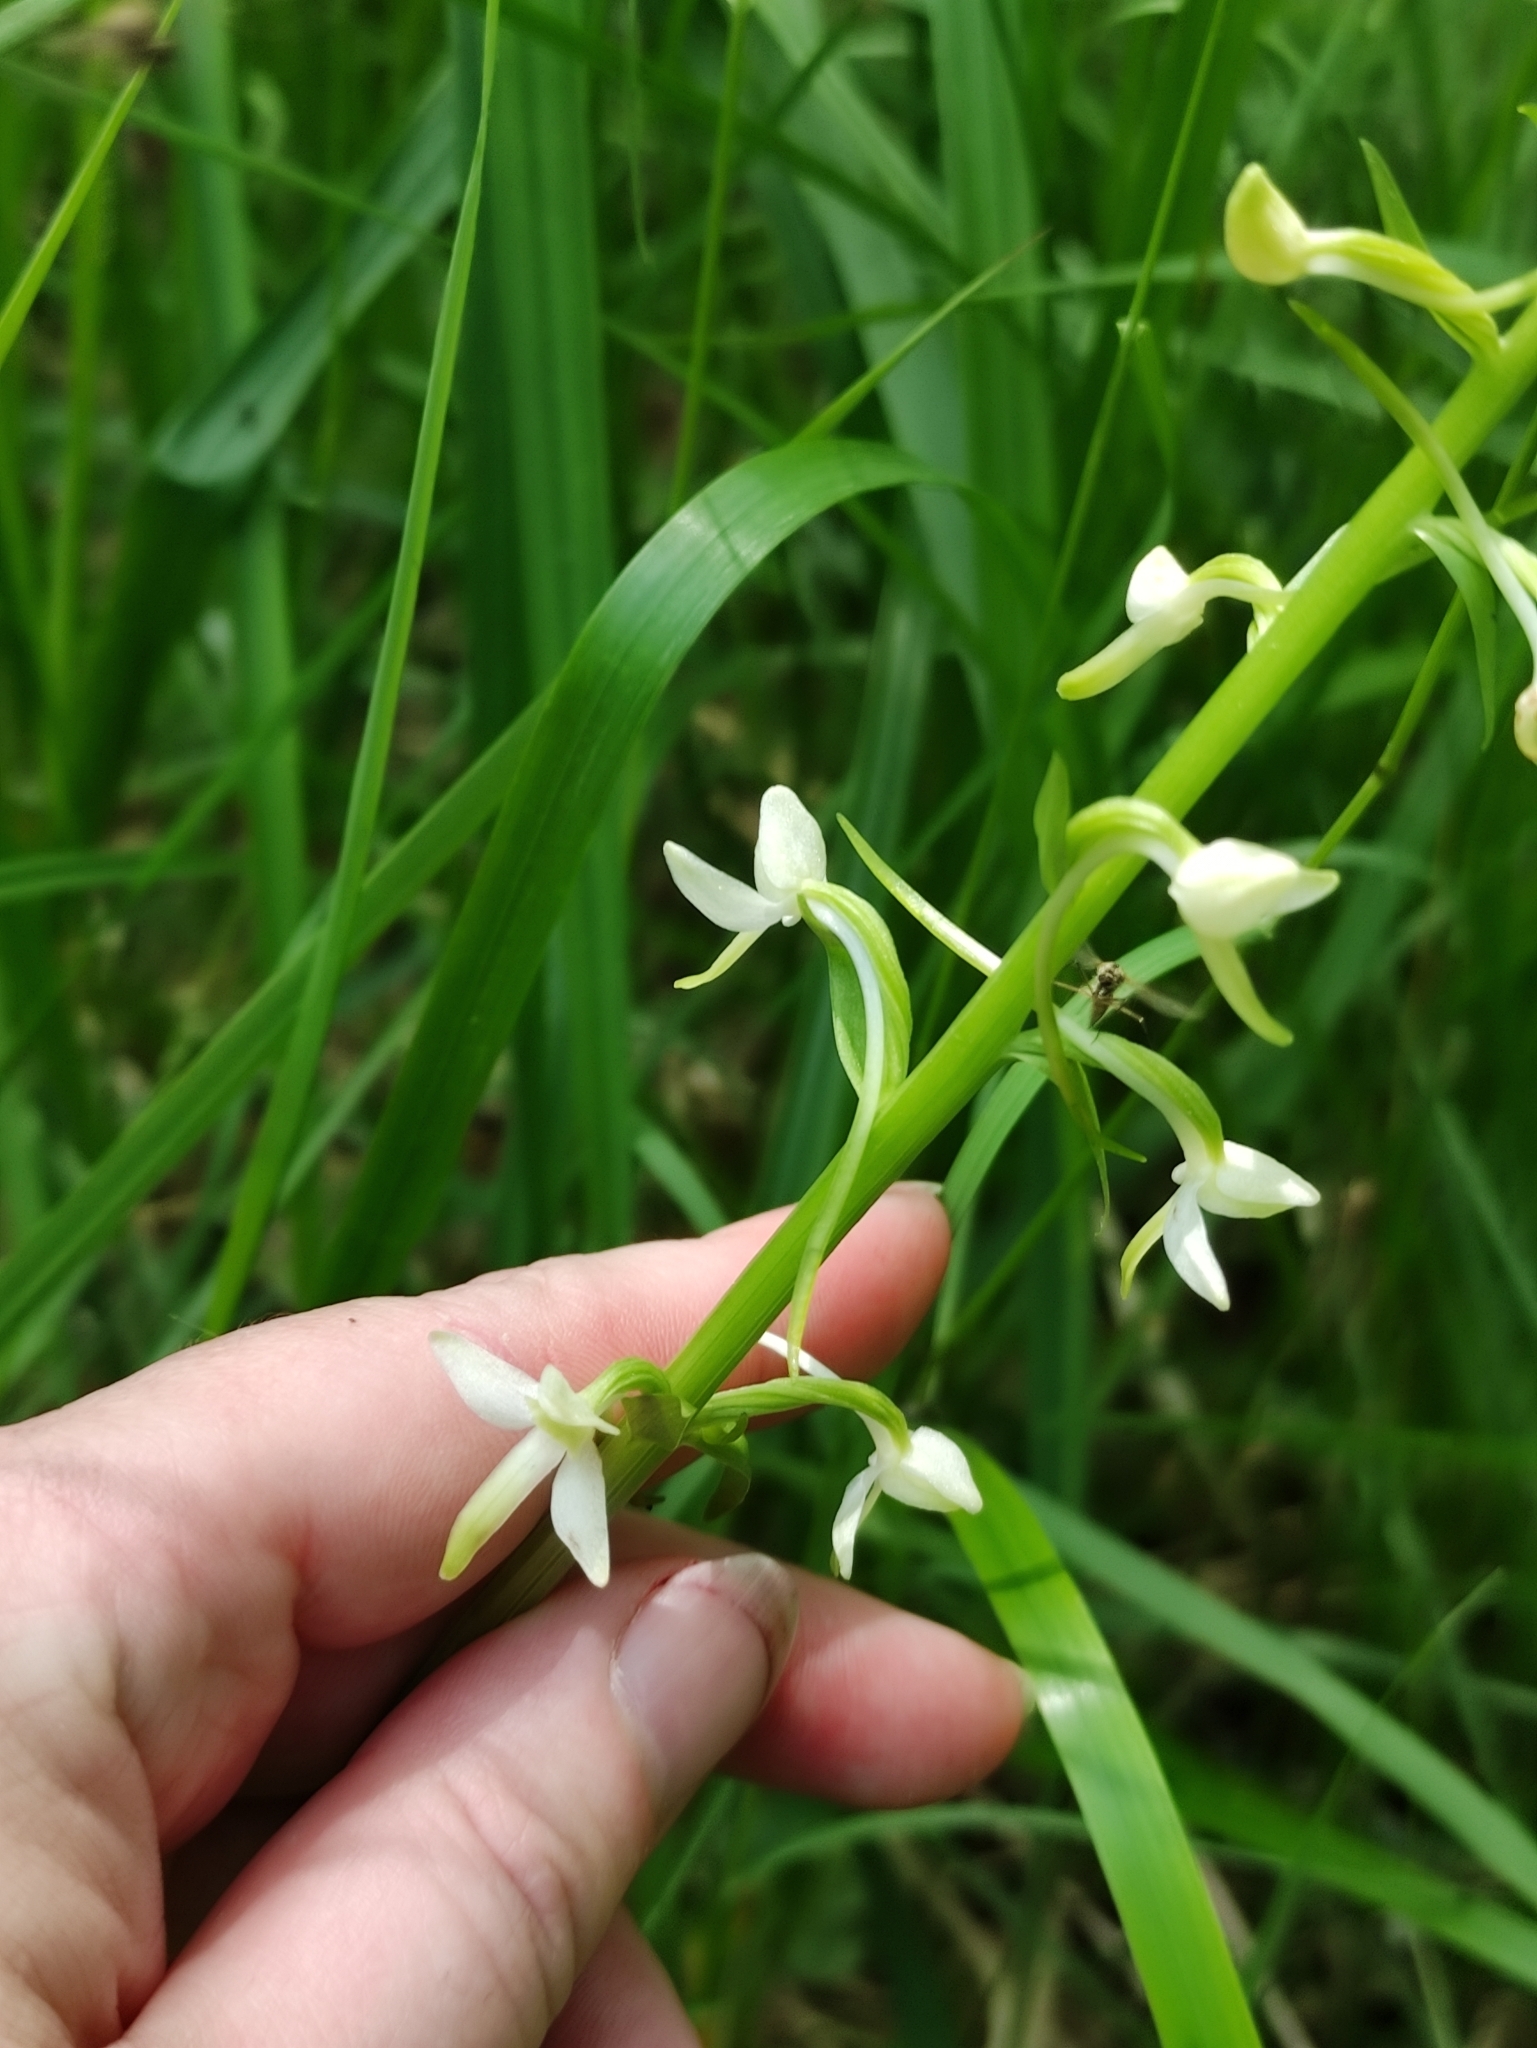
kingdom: Plantae
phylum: Tracheophyta
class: Liliopsida
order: Asparagales
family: Orchidaceae
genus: Platanthera
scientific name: Platanthera bifolia
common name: Lesser butterfly-orchid
